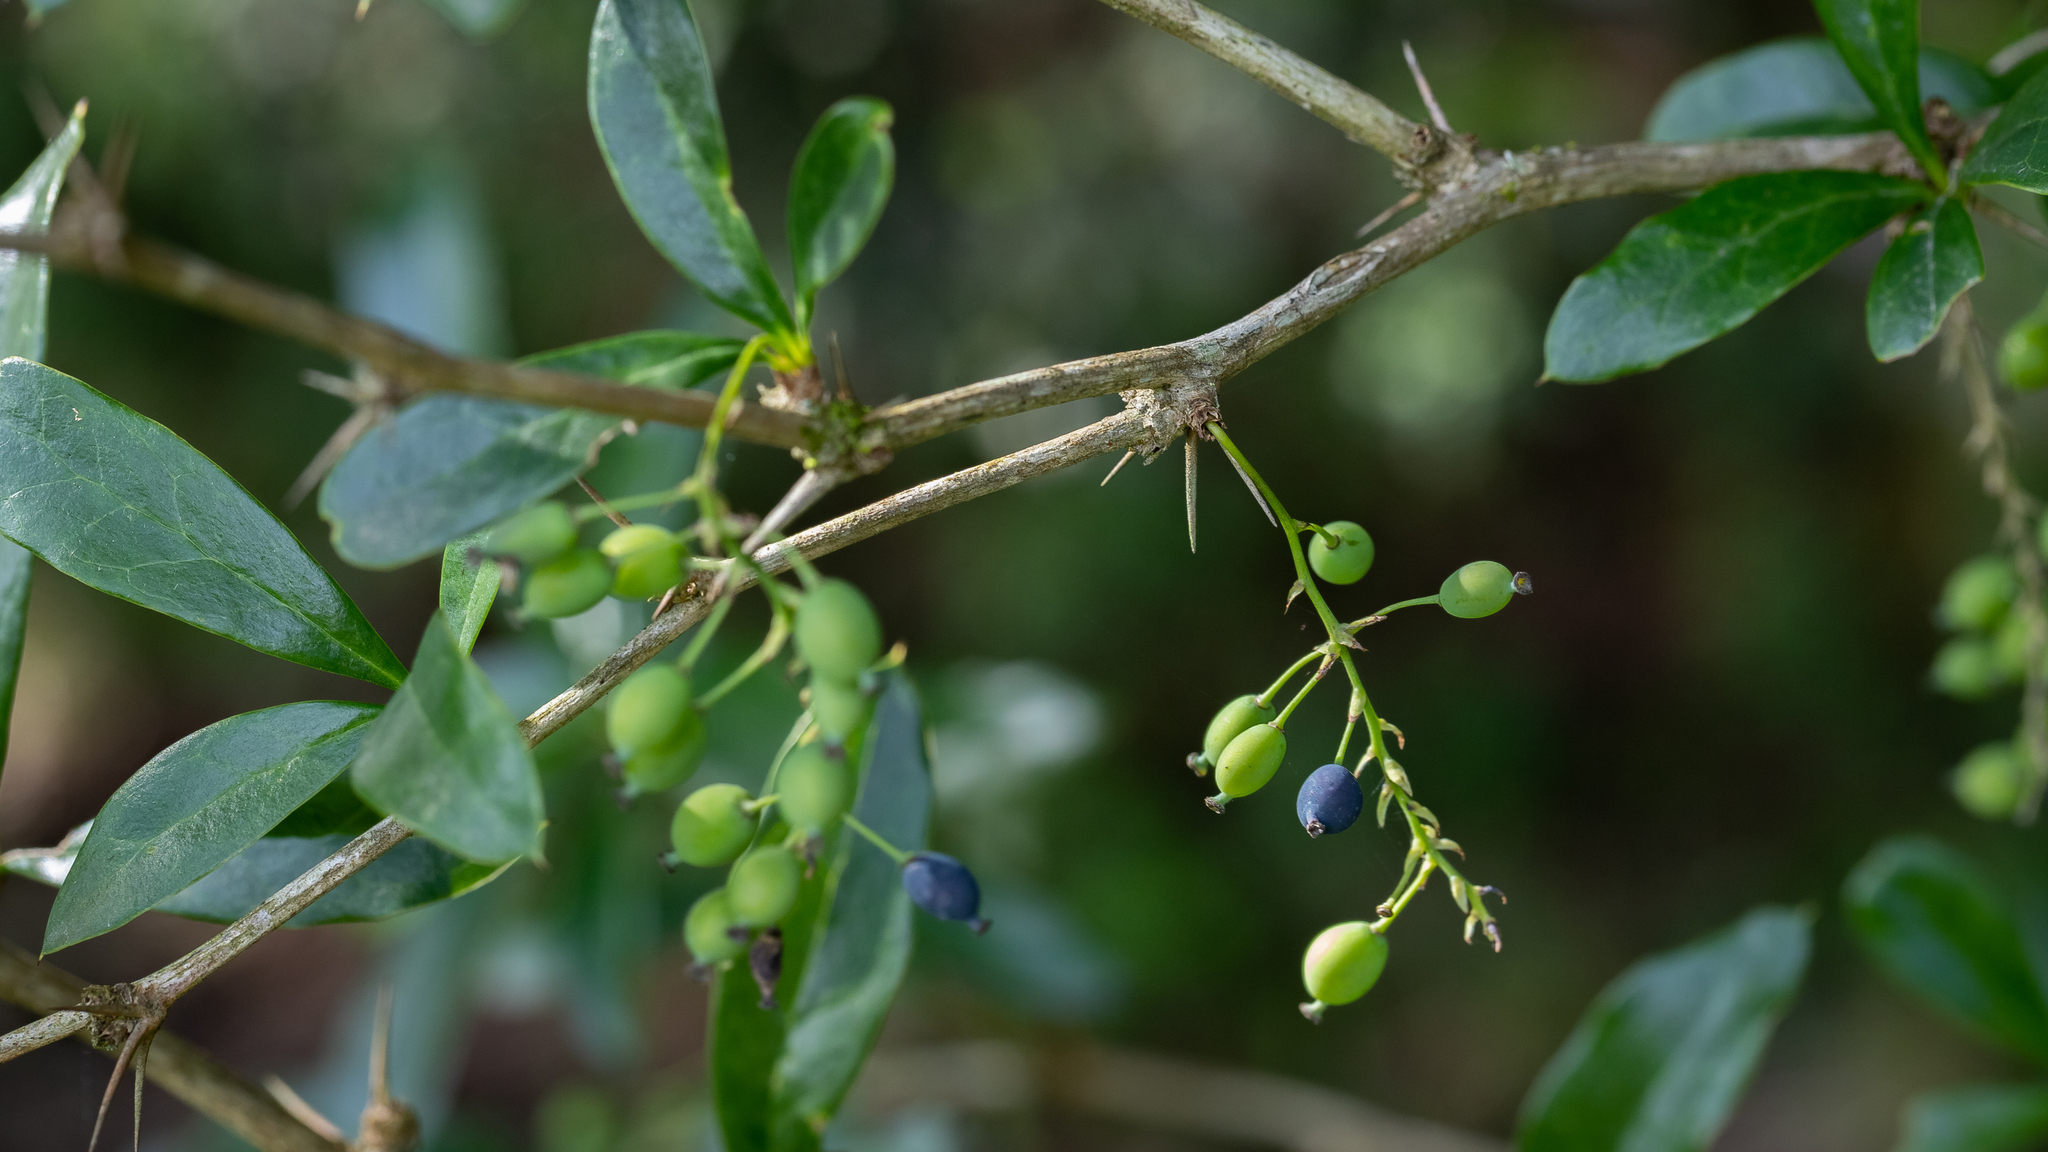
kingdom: Plantae
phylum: Tracheophyta
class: Magnoliopsida
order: Ranunculales
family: Berberidaceae
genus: Berberis
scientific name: Berberis laurina
